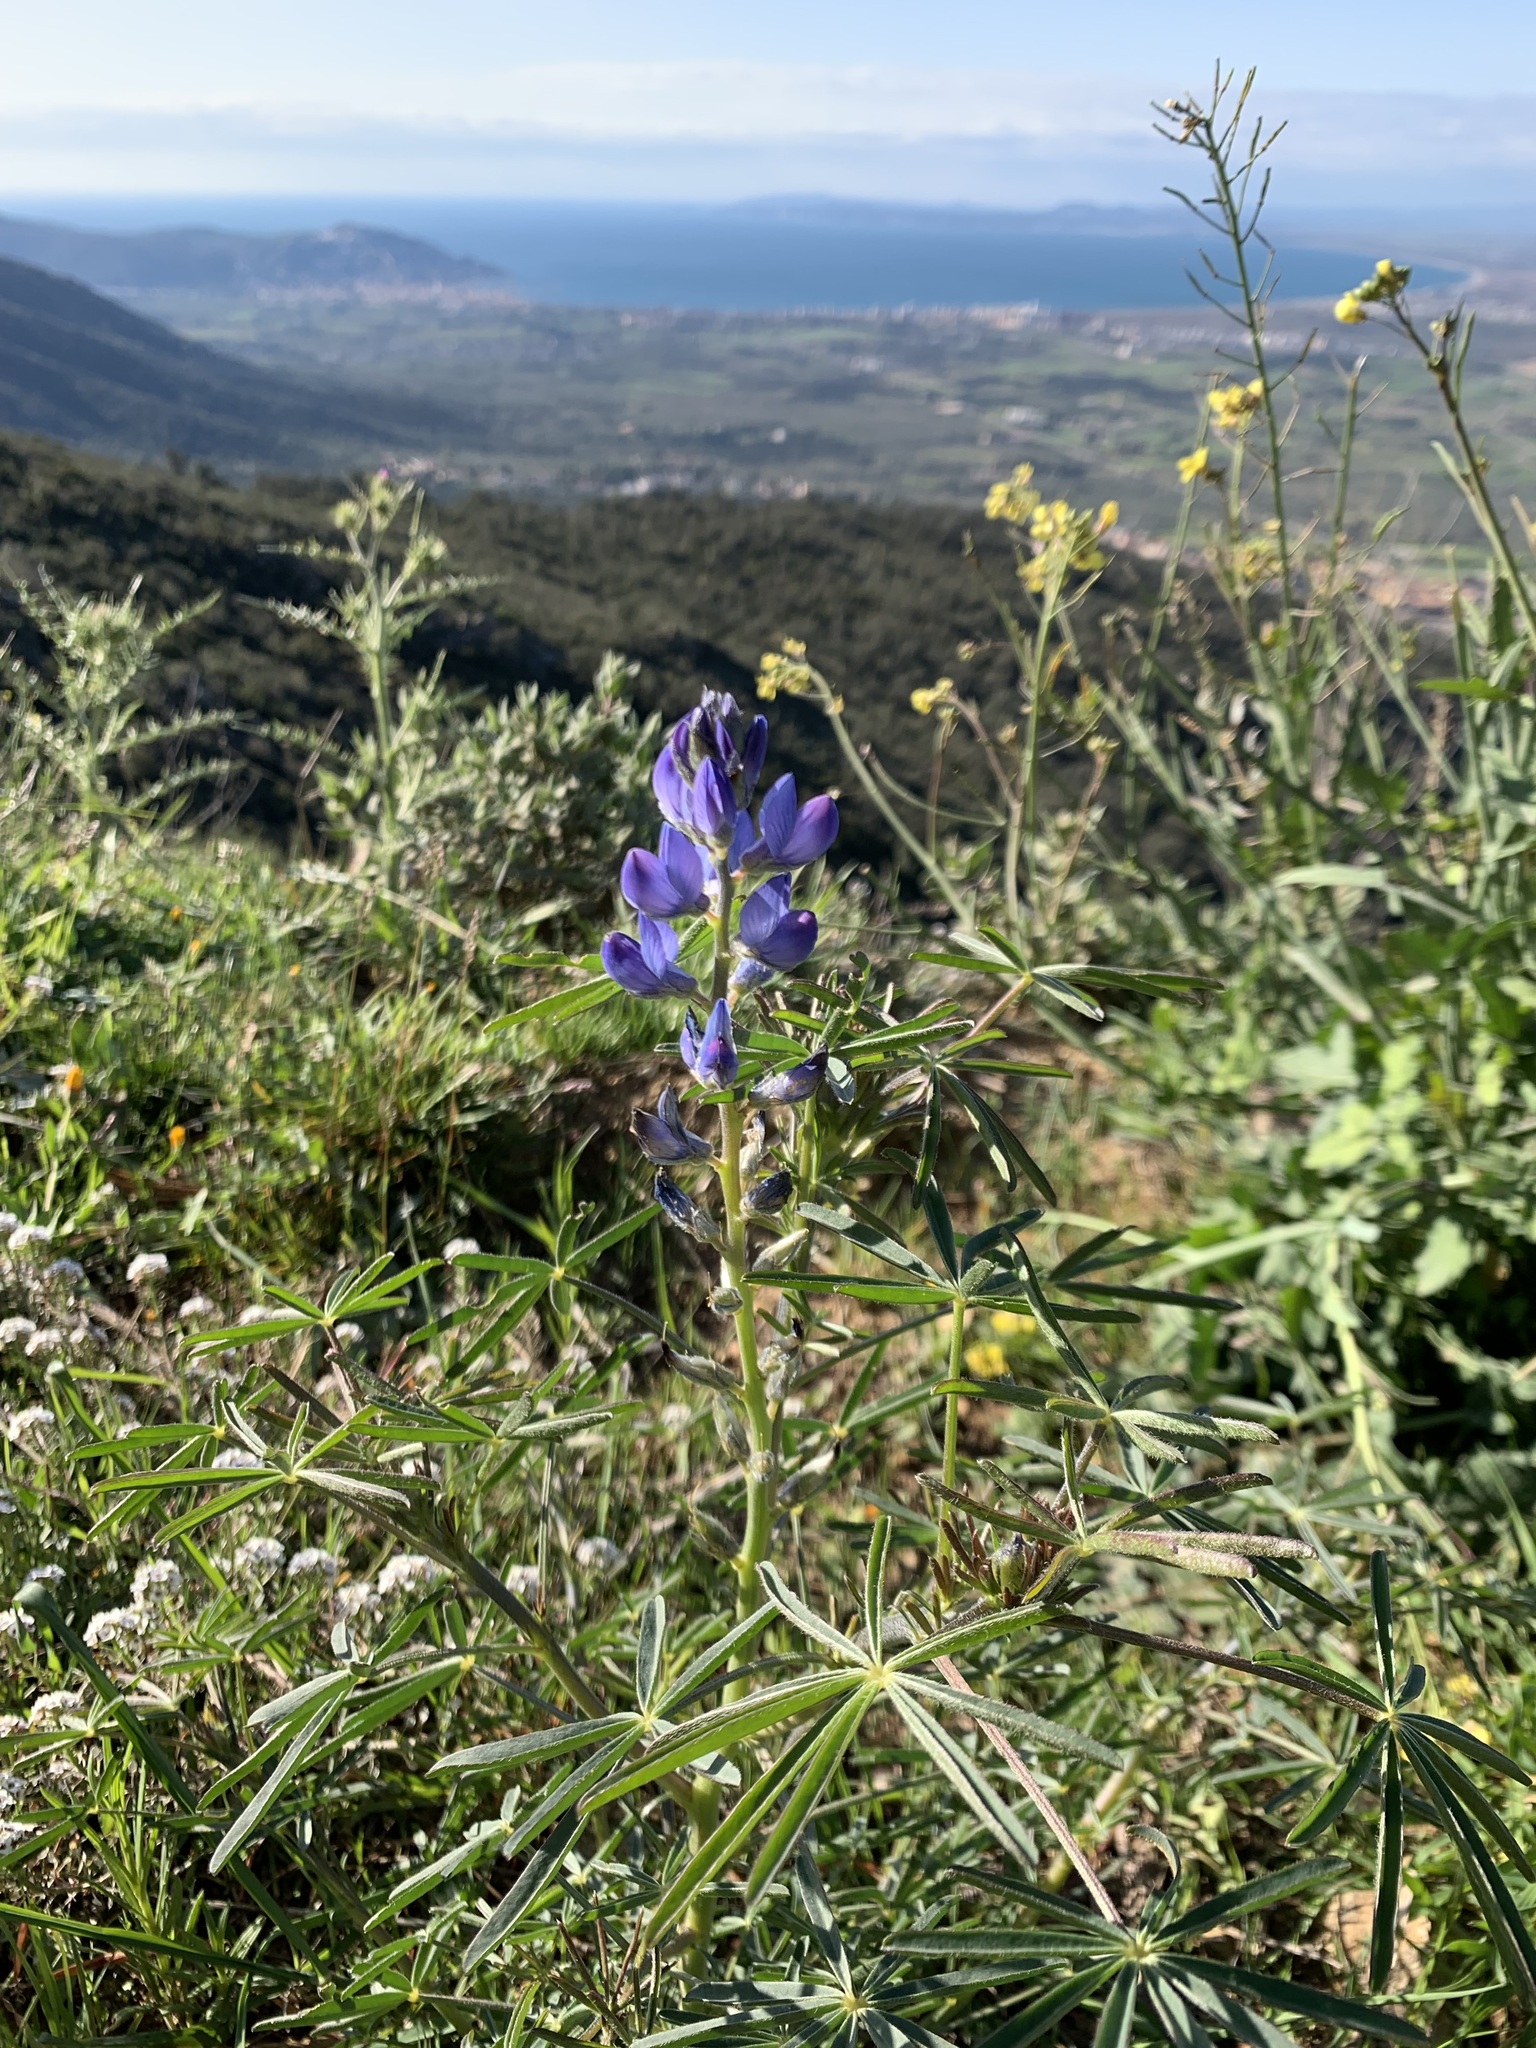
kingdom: Plantae
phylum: Tracheophyta
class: Magnoliopsida
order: Fabales
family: Fabaceae
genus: Lupinus
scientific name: Lupinus angustifolius
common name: Narrow-leaved lupin
